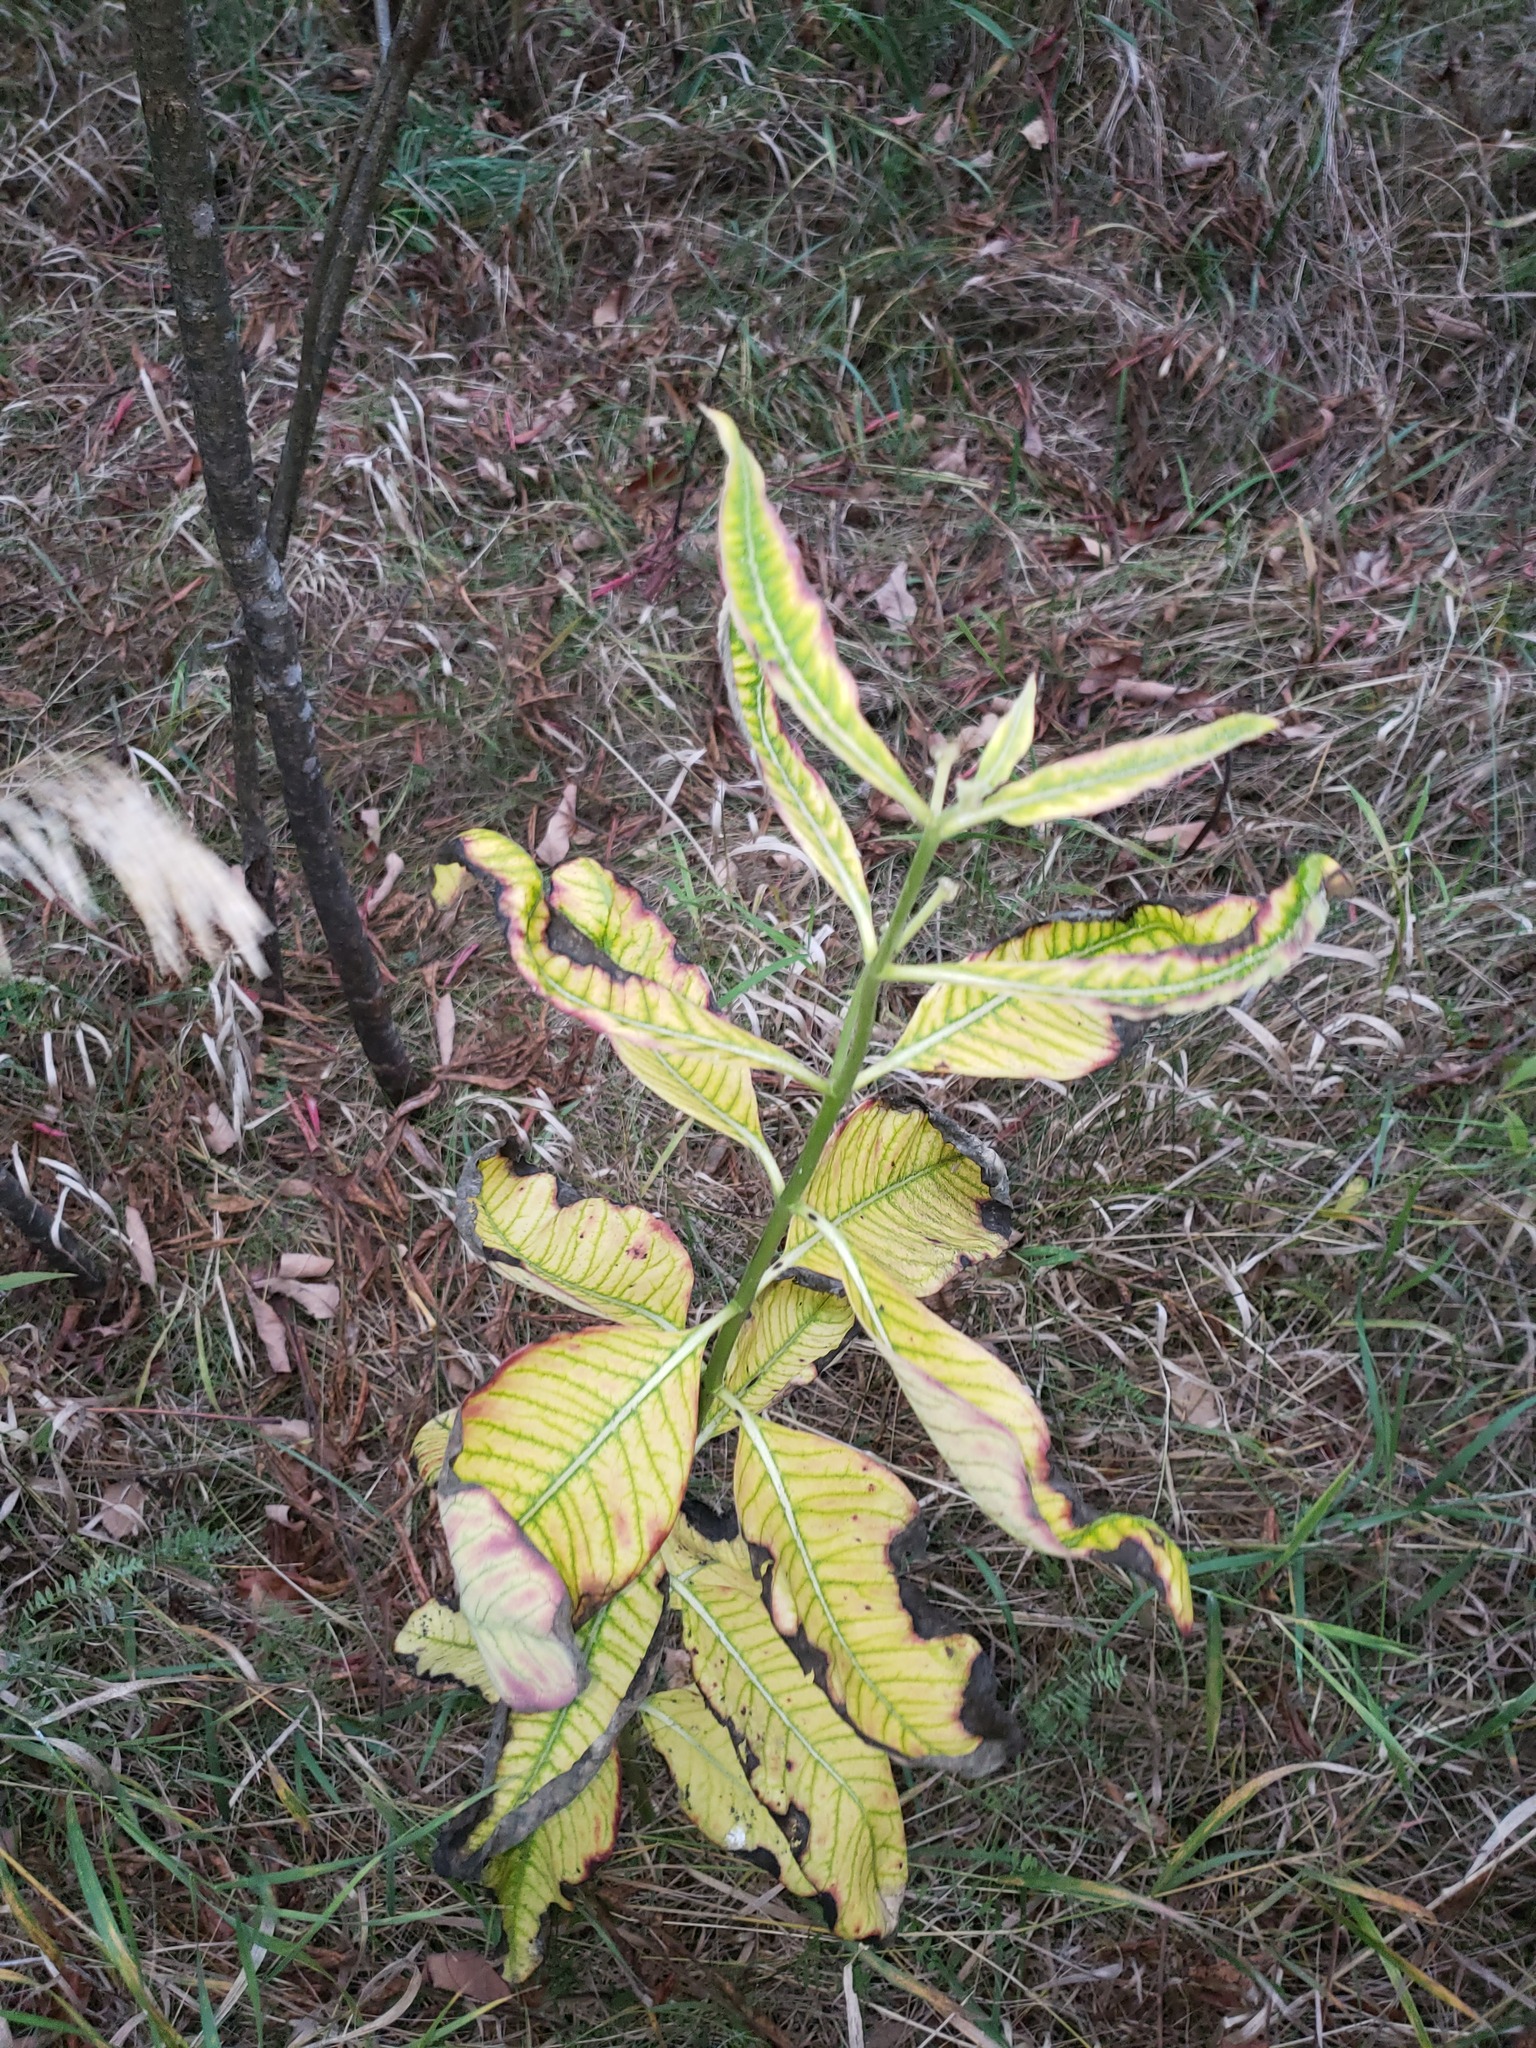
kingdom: Plantae
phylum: Tracheophyta
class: Magnoliopsida
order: Gentianales
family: Apocynaceae
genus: Asclepias
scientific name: Asclepias syriaca
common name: Common milkweed
